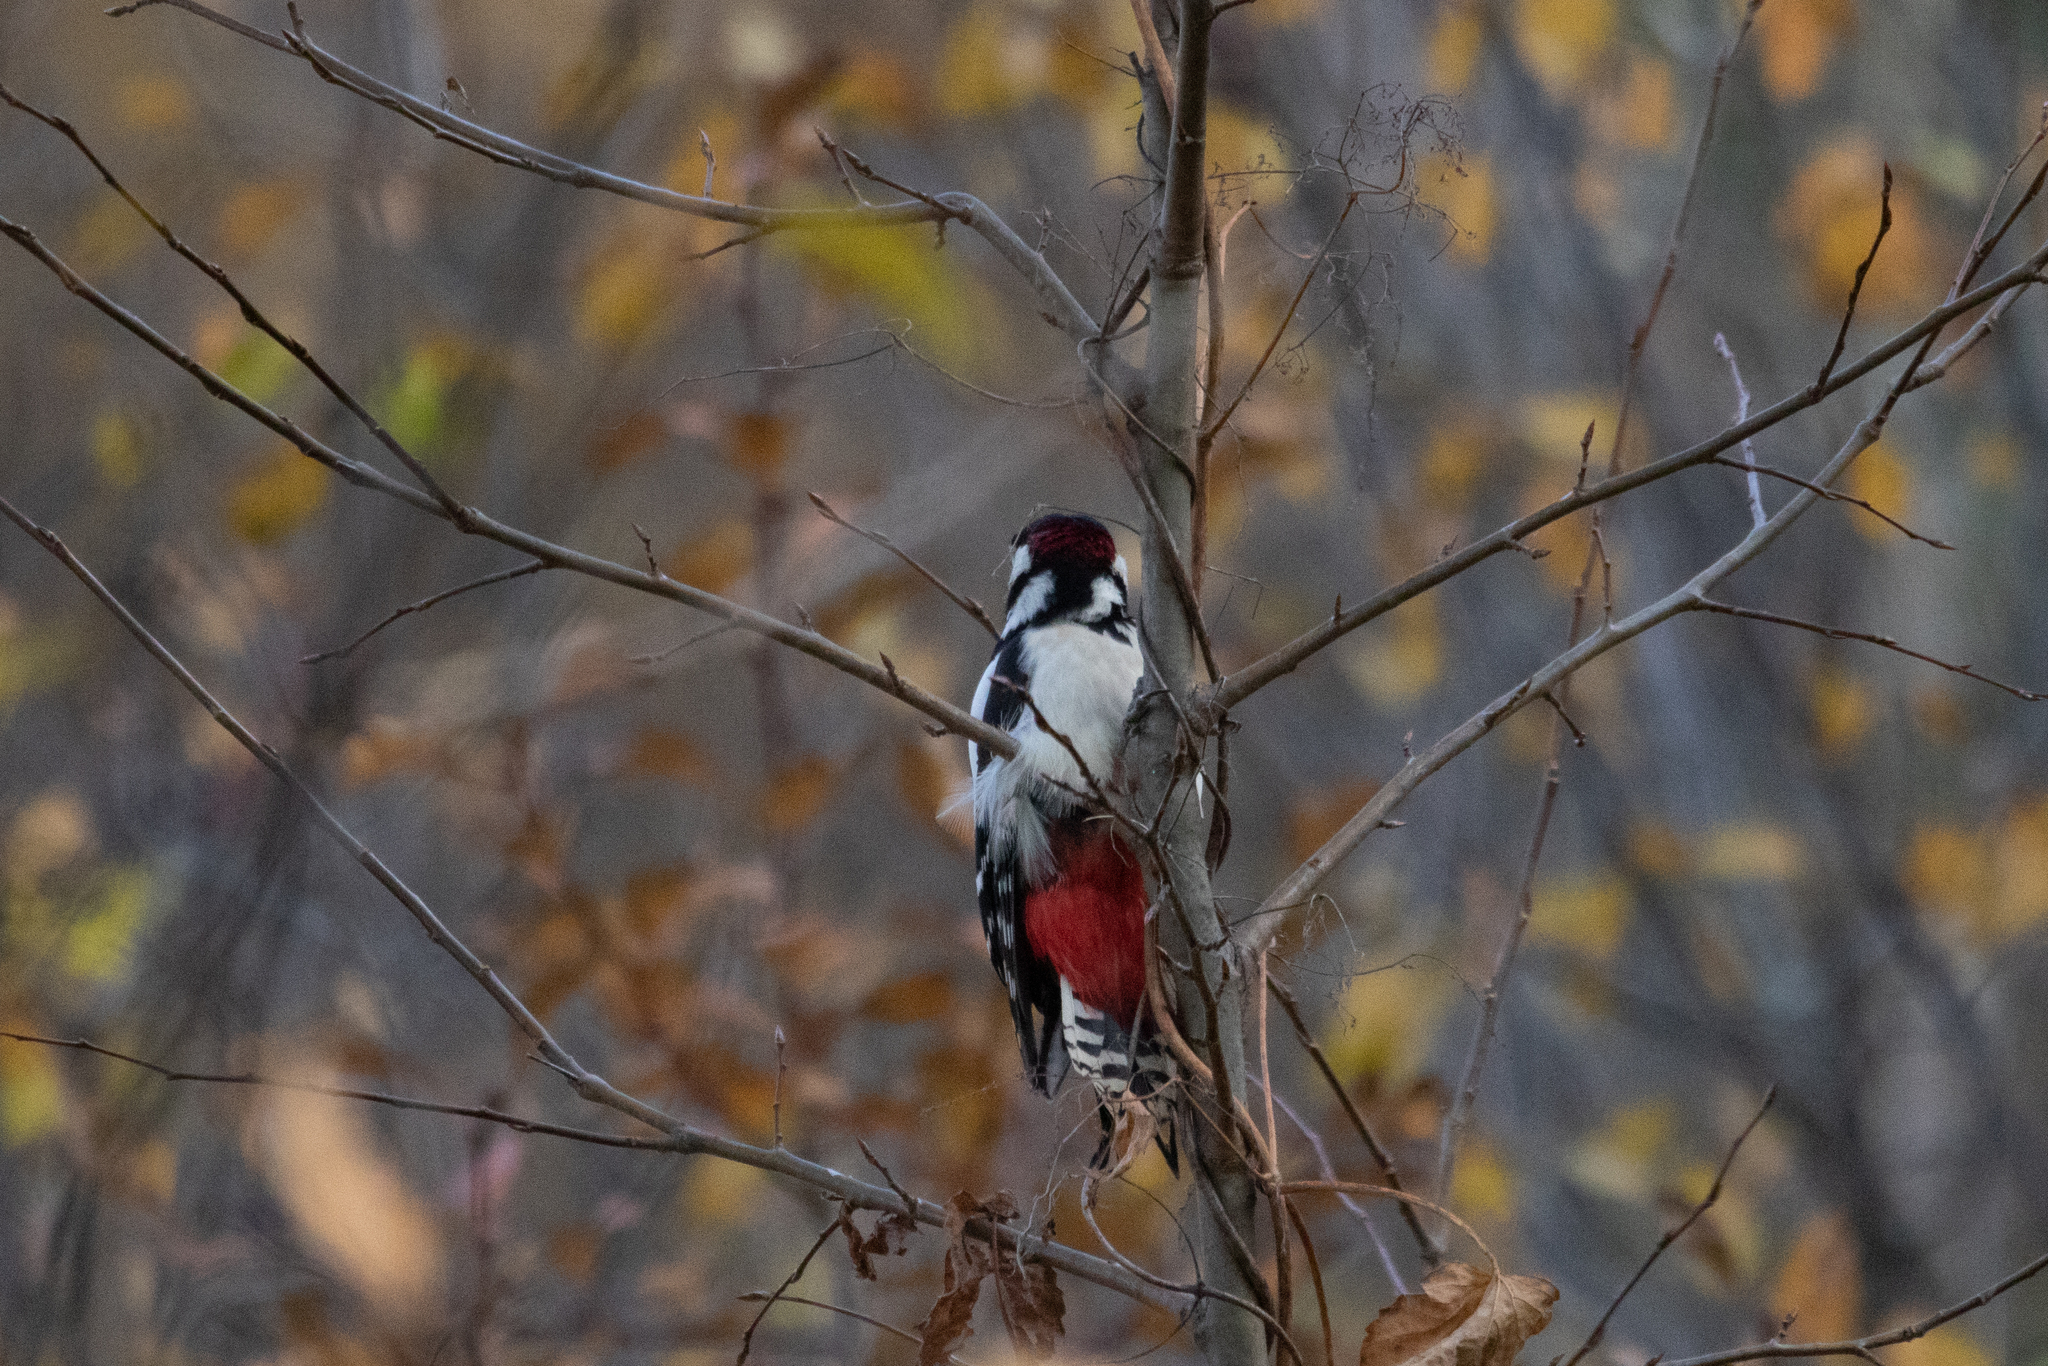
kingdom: Animalia
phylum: Chordata
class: Aves
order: Piciformes
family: Picidae
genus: Dendrocopos
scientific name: Dendrocopos major
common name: Great spotted woodpecker
